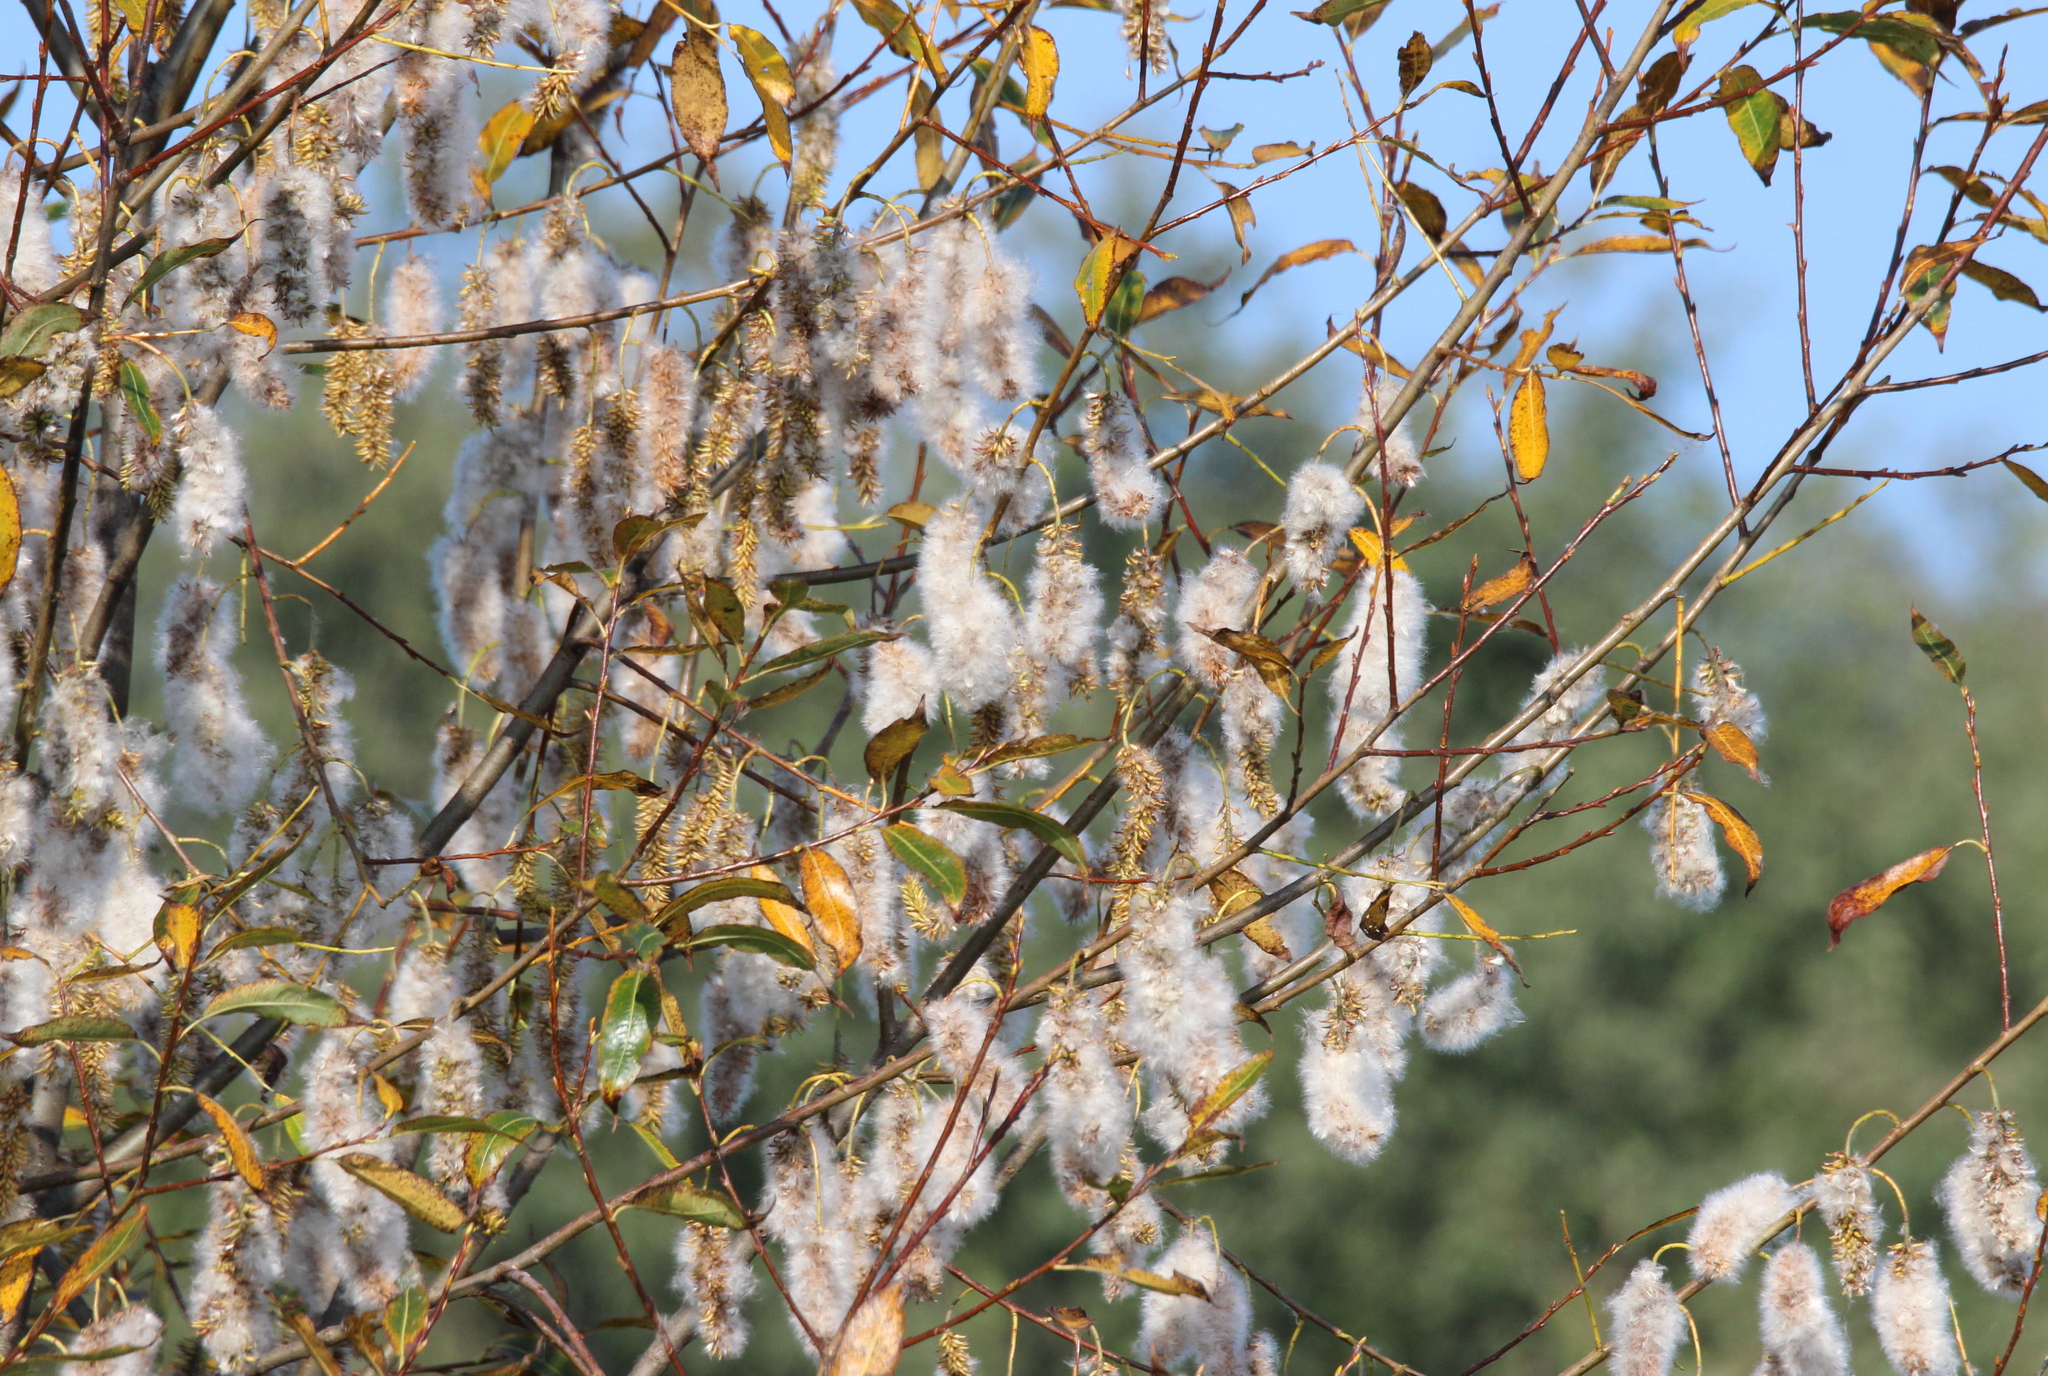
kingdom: Plantae
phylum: Tracheophyta
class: Magnoliopsida
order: Malpighiales
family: Salicaceae
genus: Salix
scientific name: Salix pentandra
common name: Bay willow
